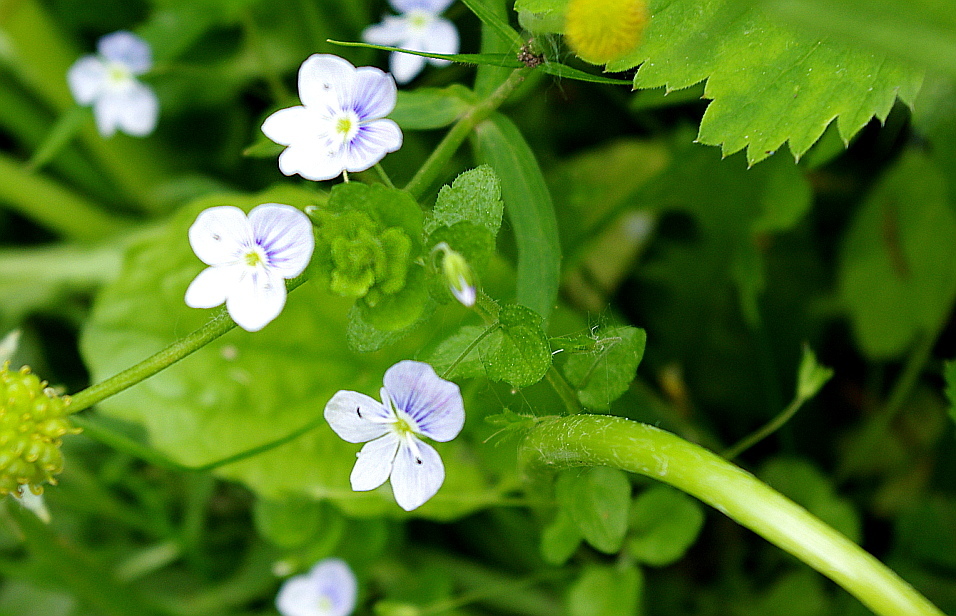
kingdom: Plantae
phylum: Tracheophyta
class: Magnoliopsida
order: Lamiales
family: Plantaginaceae
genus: Veronica
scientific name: Veronica filiformis
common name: Slender speedwell
